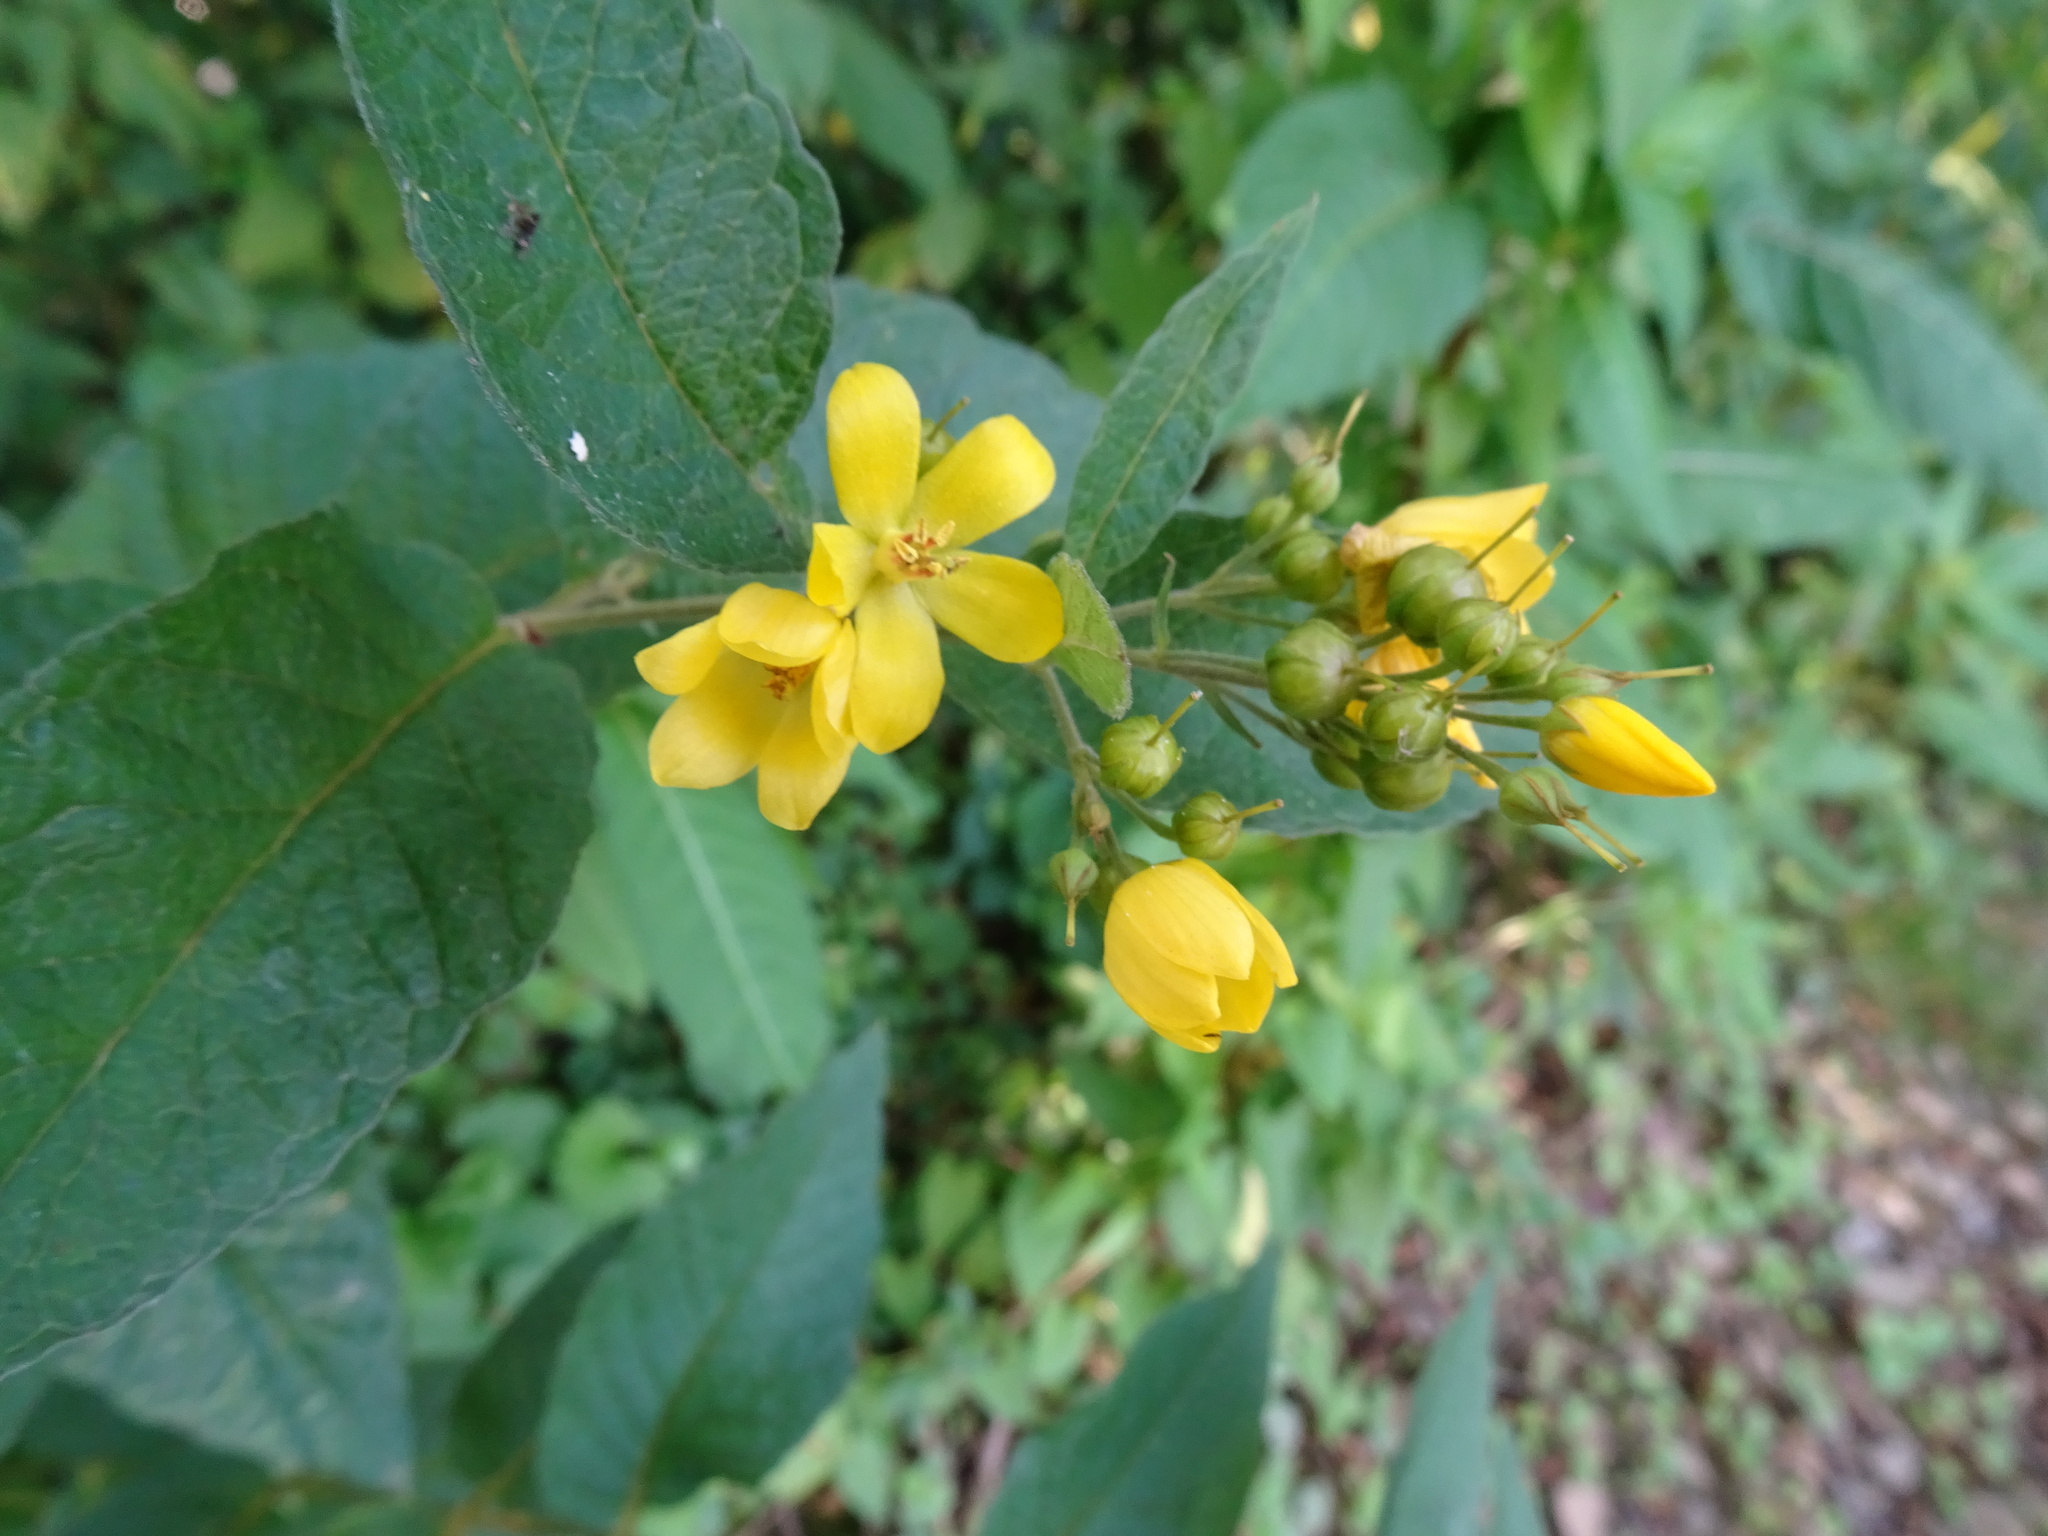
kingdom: Plantae
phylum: Tracheophyta
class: Magnoliopsida
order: Ericales
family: Primulaceae
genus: Lysimachia
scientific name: Lysimachia vulgaris
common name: Yellow loosestrife
